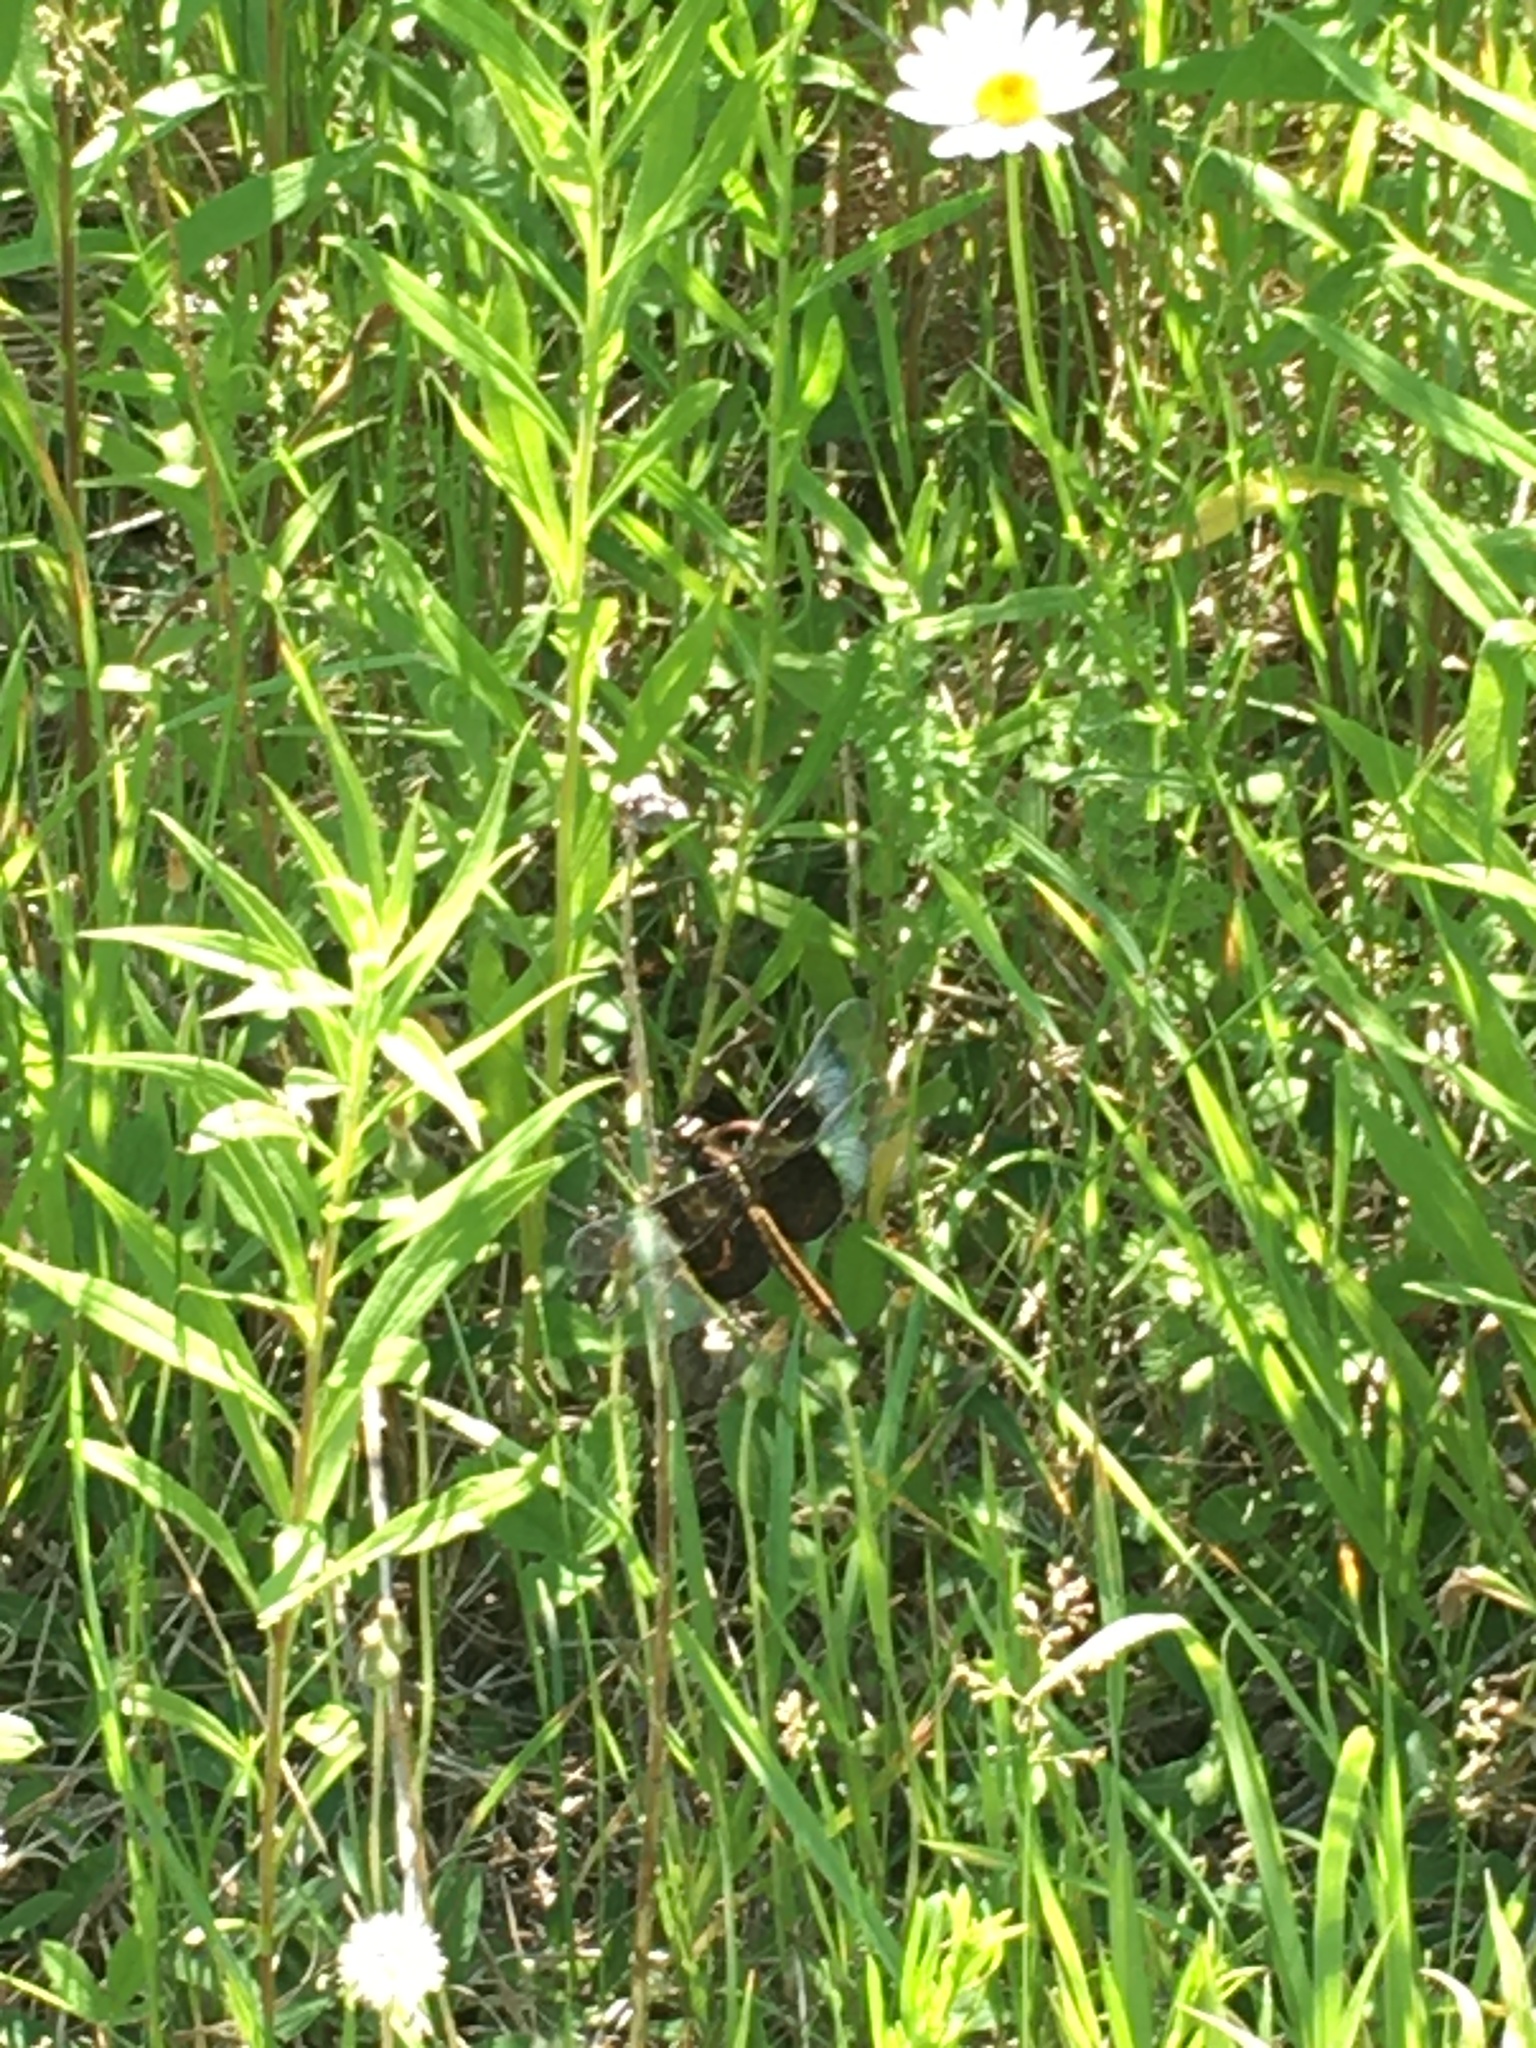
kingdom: Animalia
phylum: Arthropoda
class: Insecta
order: Odonata
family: Libellulidae
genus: Libellula
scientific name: Libellula luctuosa
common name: Widow skimmer
